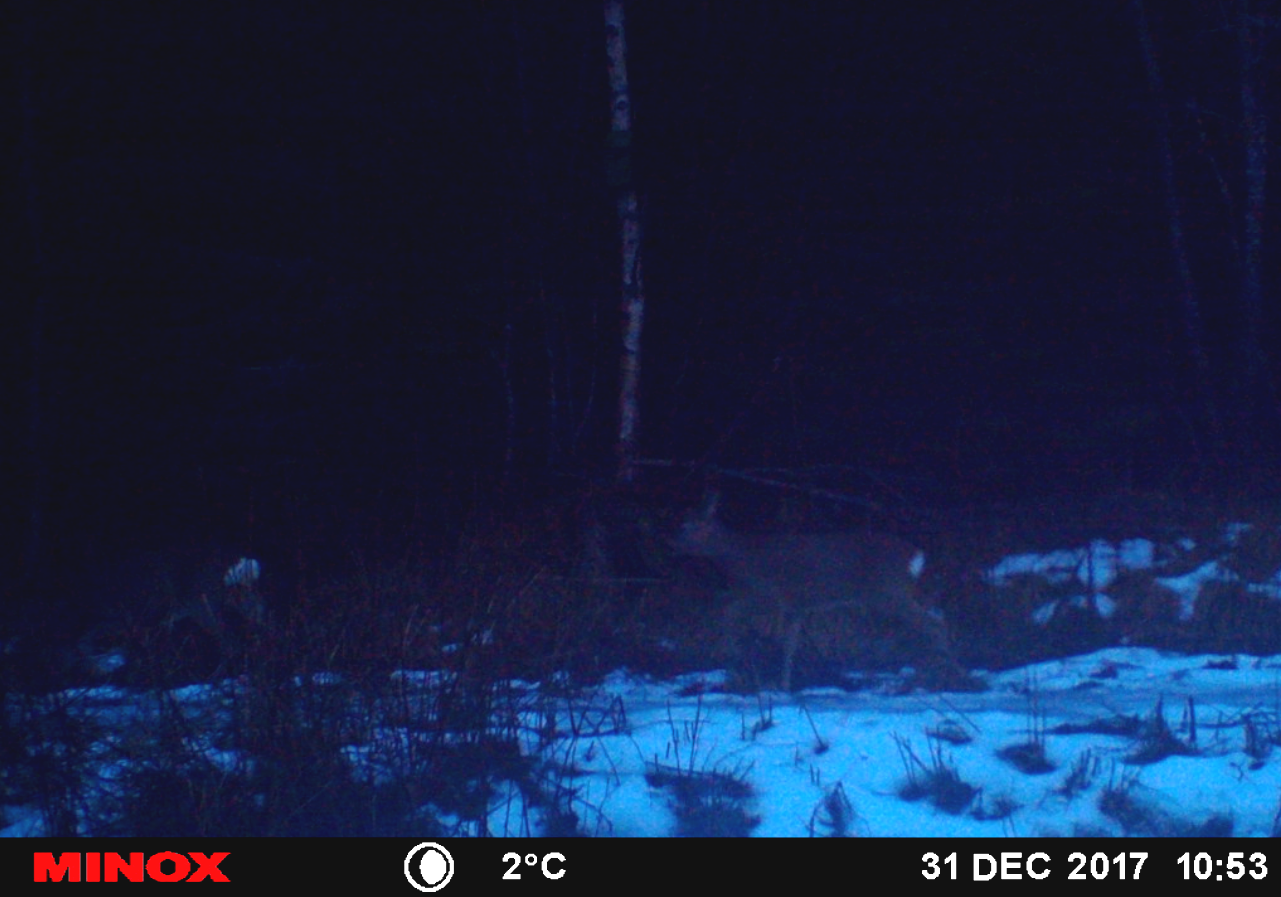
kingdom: Animalia
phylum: Chordata
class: Mammalia
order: Artiodactyla
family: Cervidae
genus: Capreolus
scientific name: Capreolus capreolus
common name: Western roe deer
